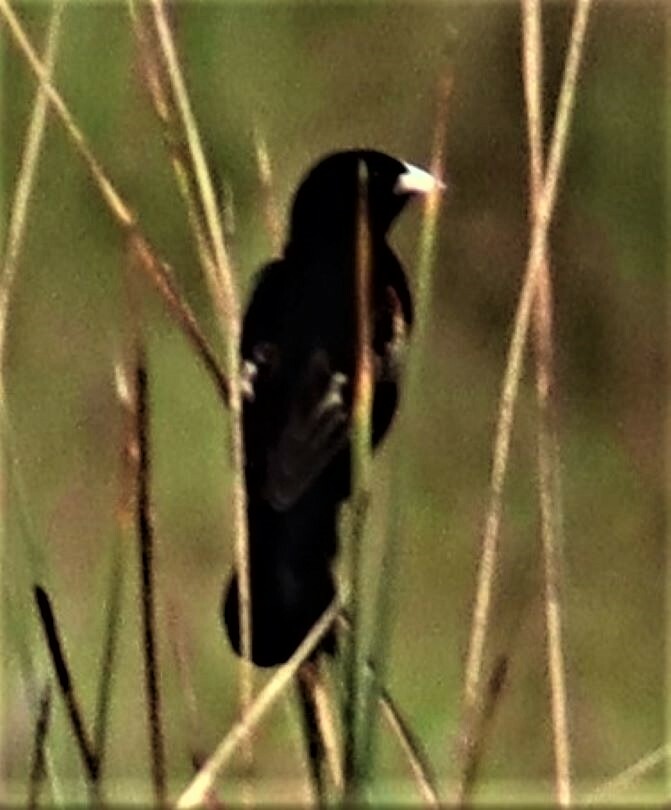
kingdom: Animalia
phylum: Chordata
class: Aves
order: Passeriformes
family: Ploceidae
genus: Euplectes
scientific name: Euplectes axillaris
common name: Fan-tailed widowbird
